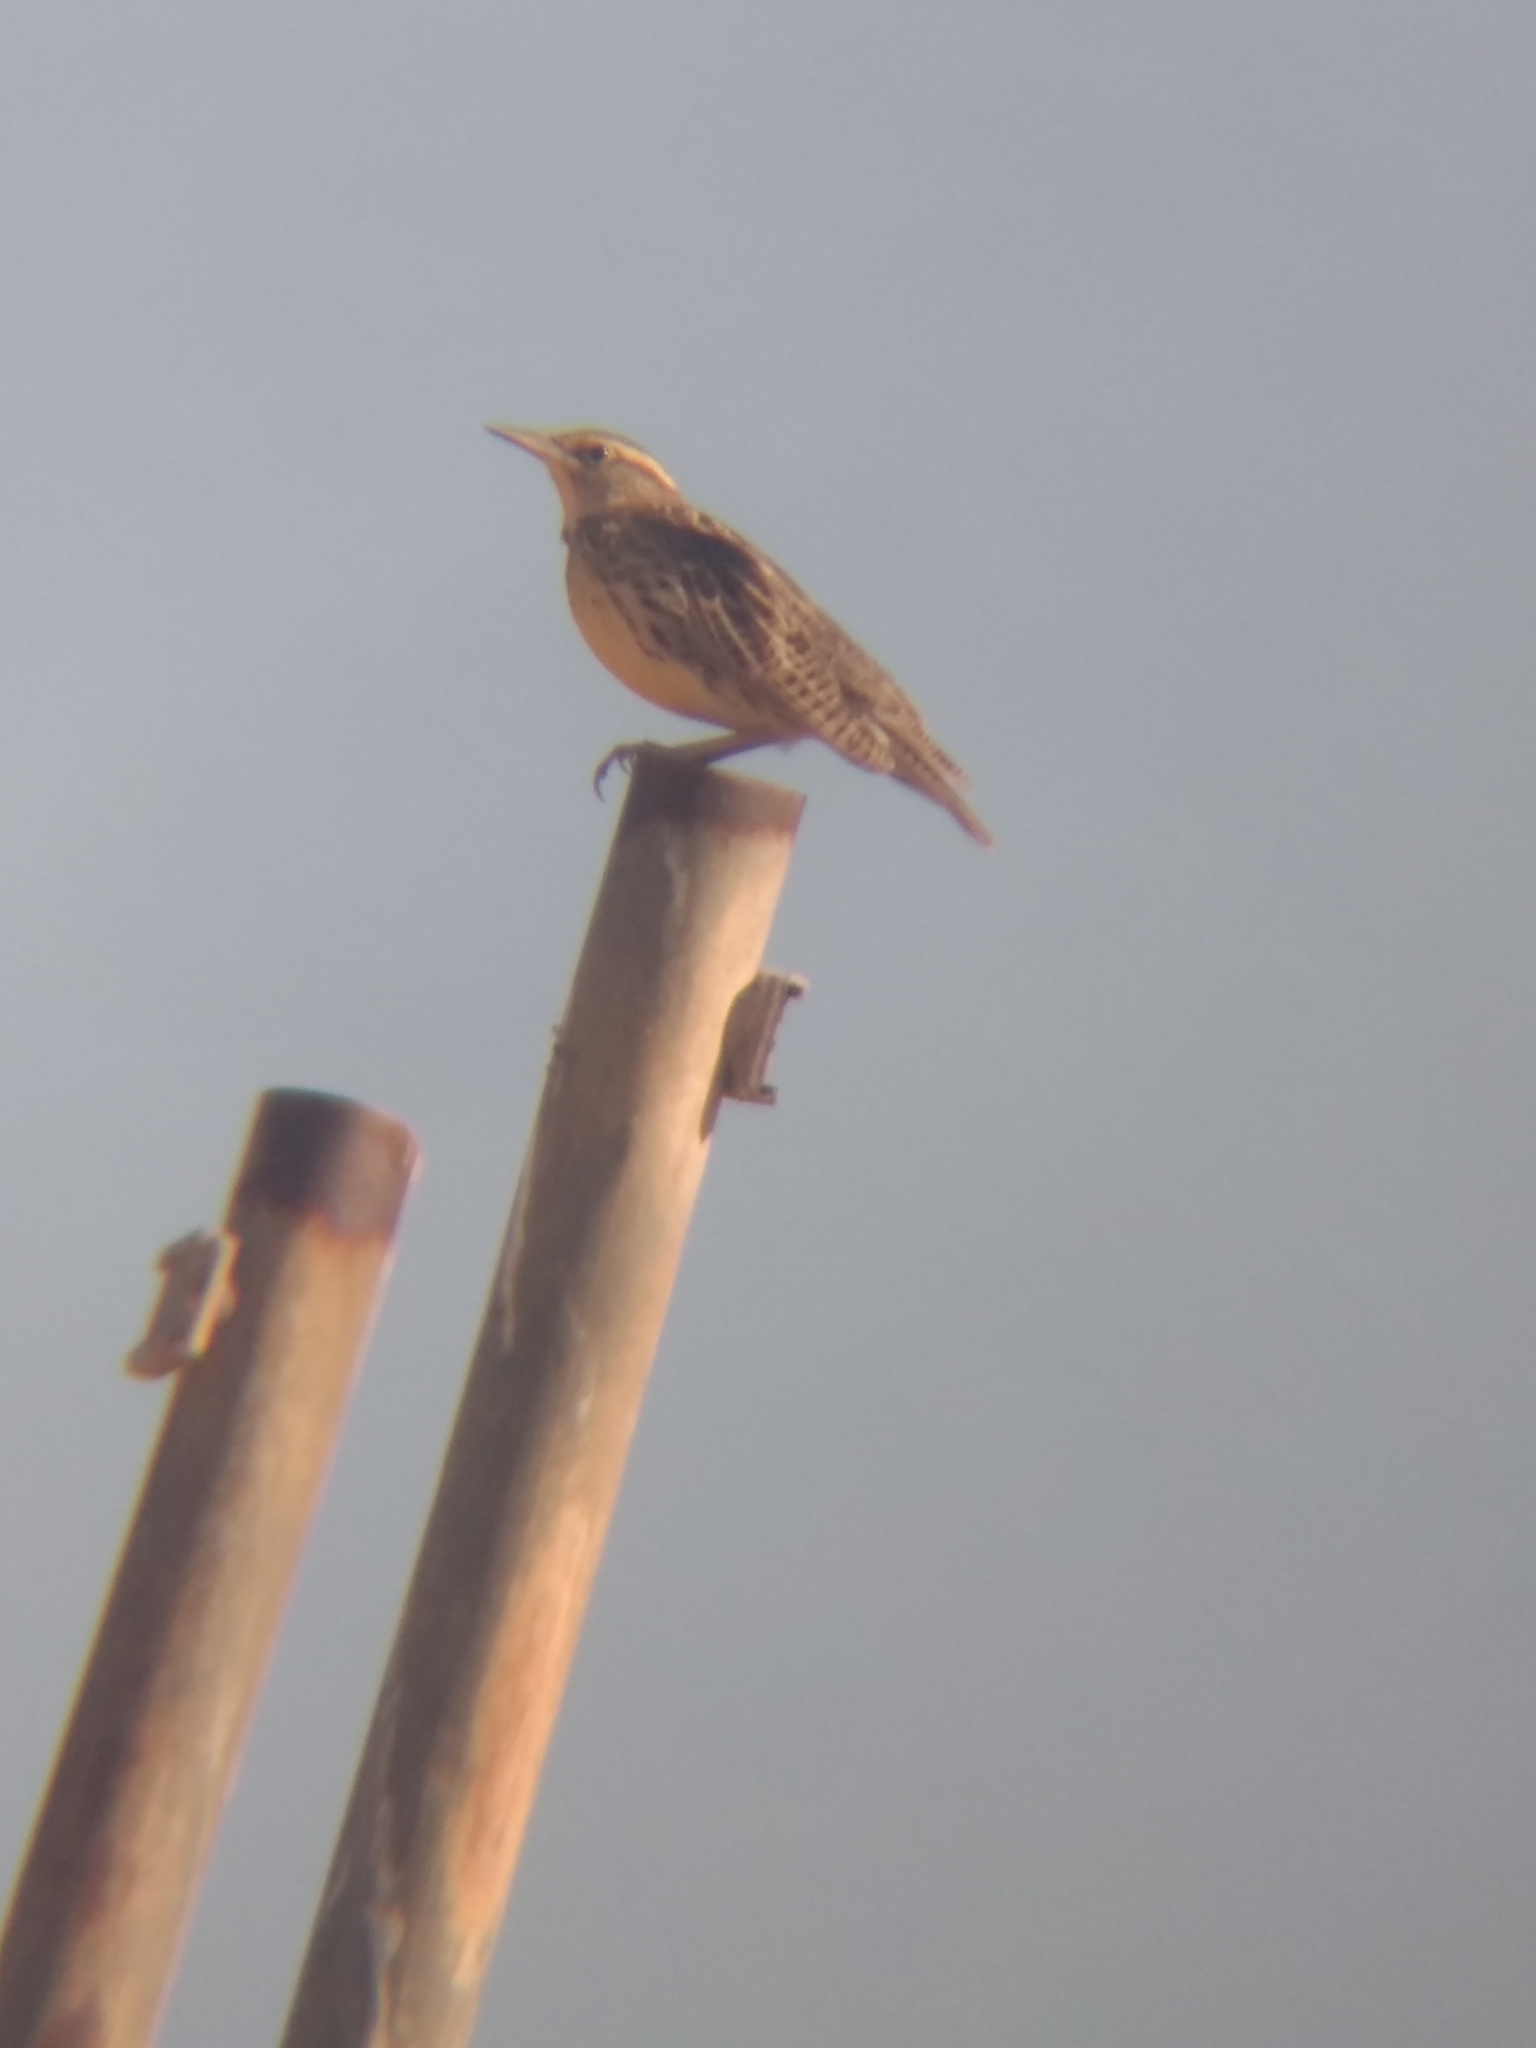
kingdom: Animalia
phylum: Chordata
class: Aves
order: Passeriformes
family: Icteridae
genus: Sturnella
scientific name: Sturnella neglecta
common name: Western meadowlark
